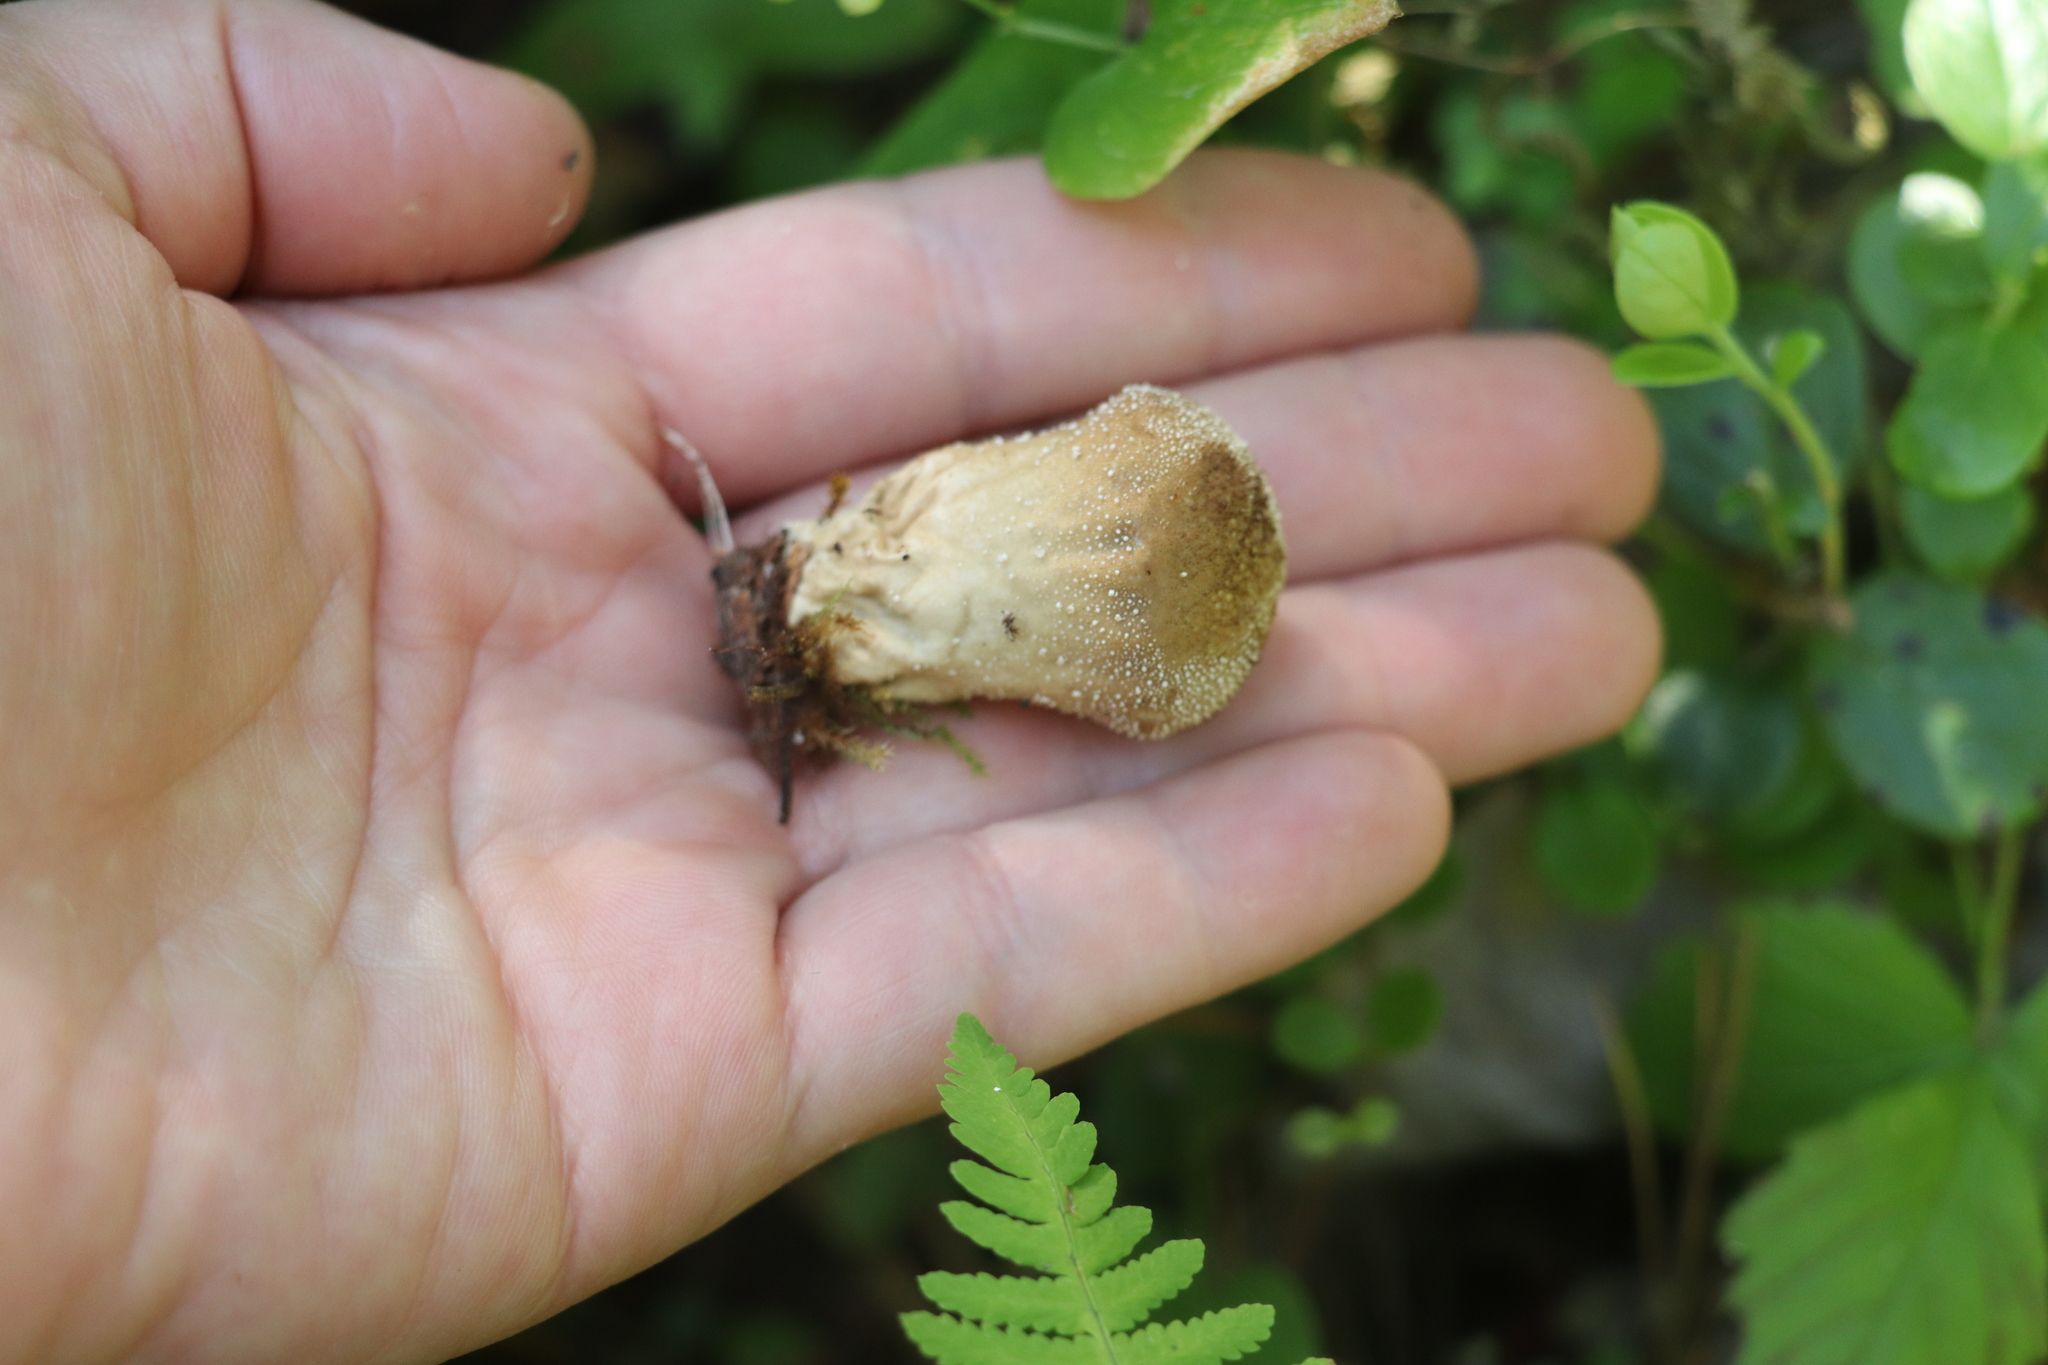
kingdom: Fungi
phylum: Basidiomycota
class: Agaricomycetes
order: Agaricales
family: Lycoperdaceae
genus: Lycoperdon
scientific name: Lycoperdon perlatum
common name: Common puffball
